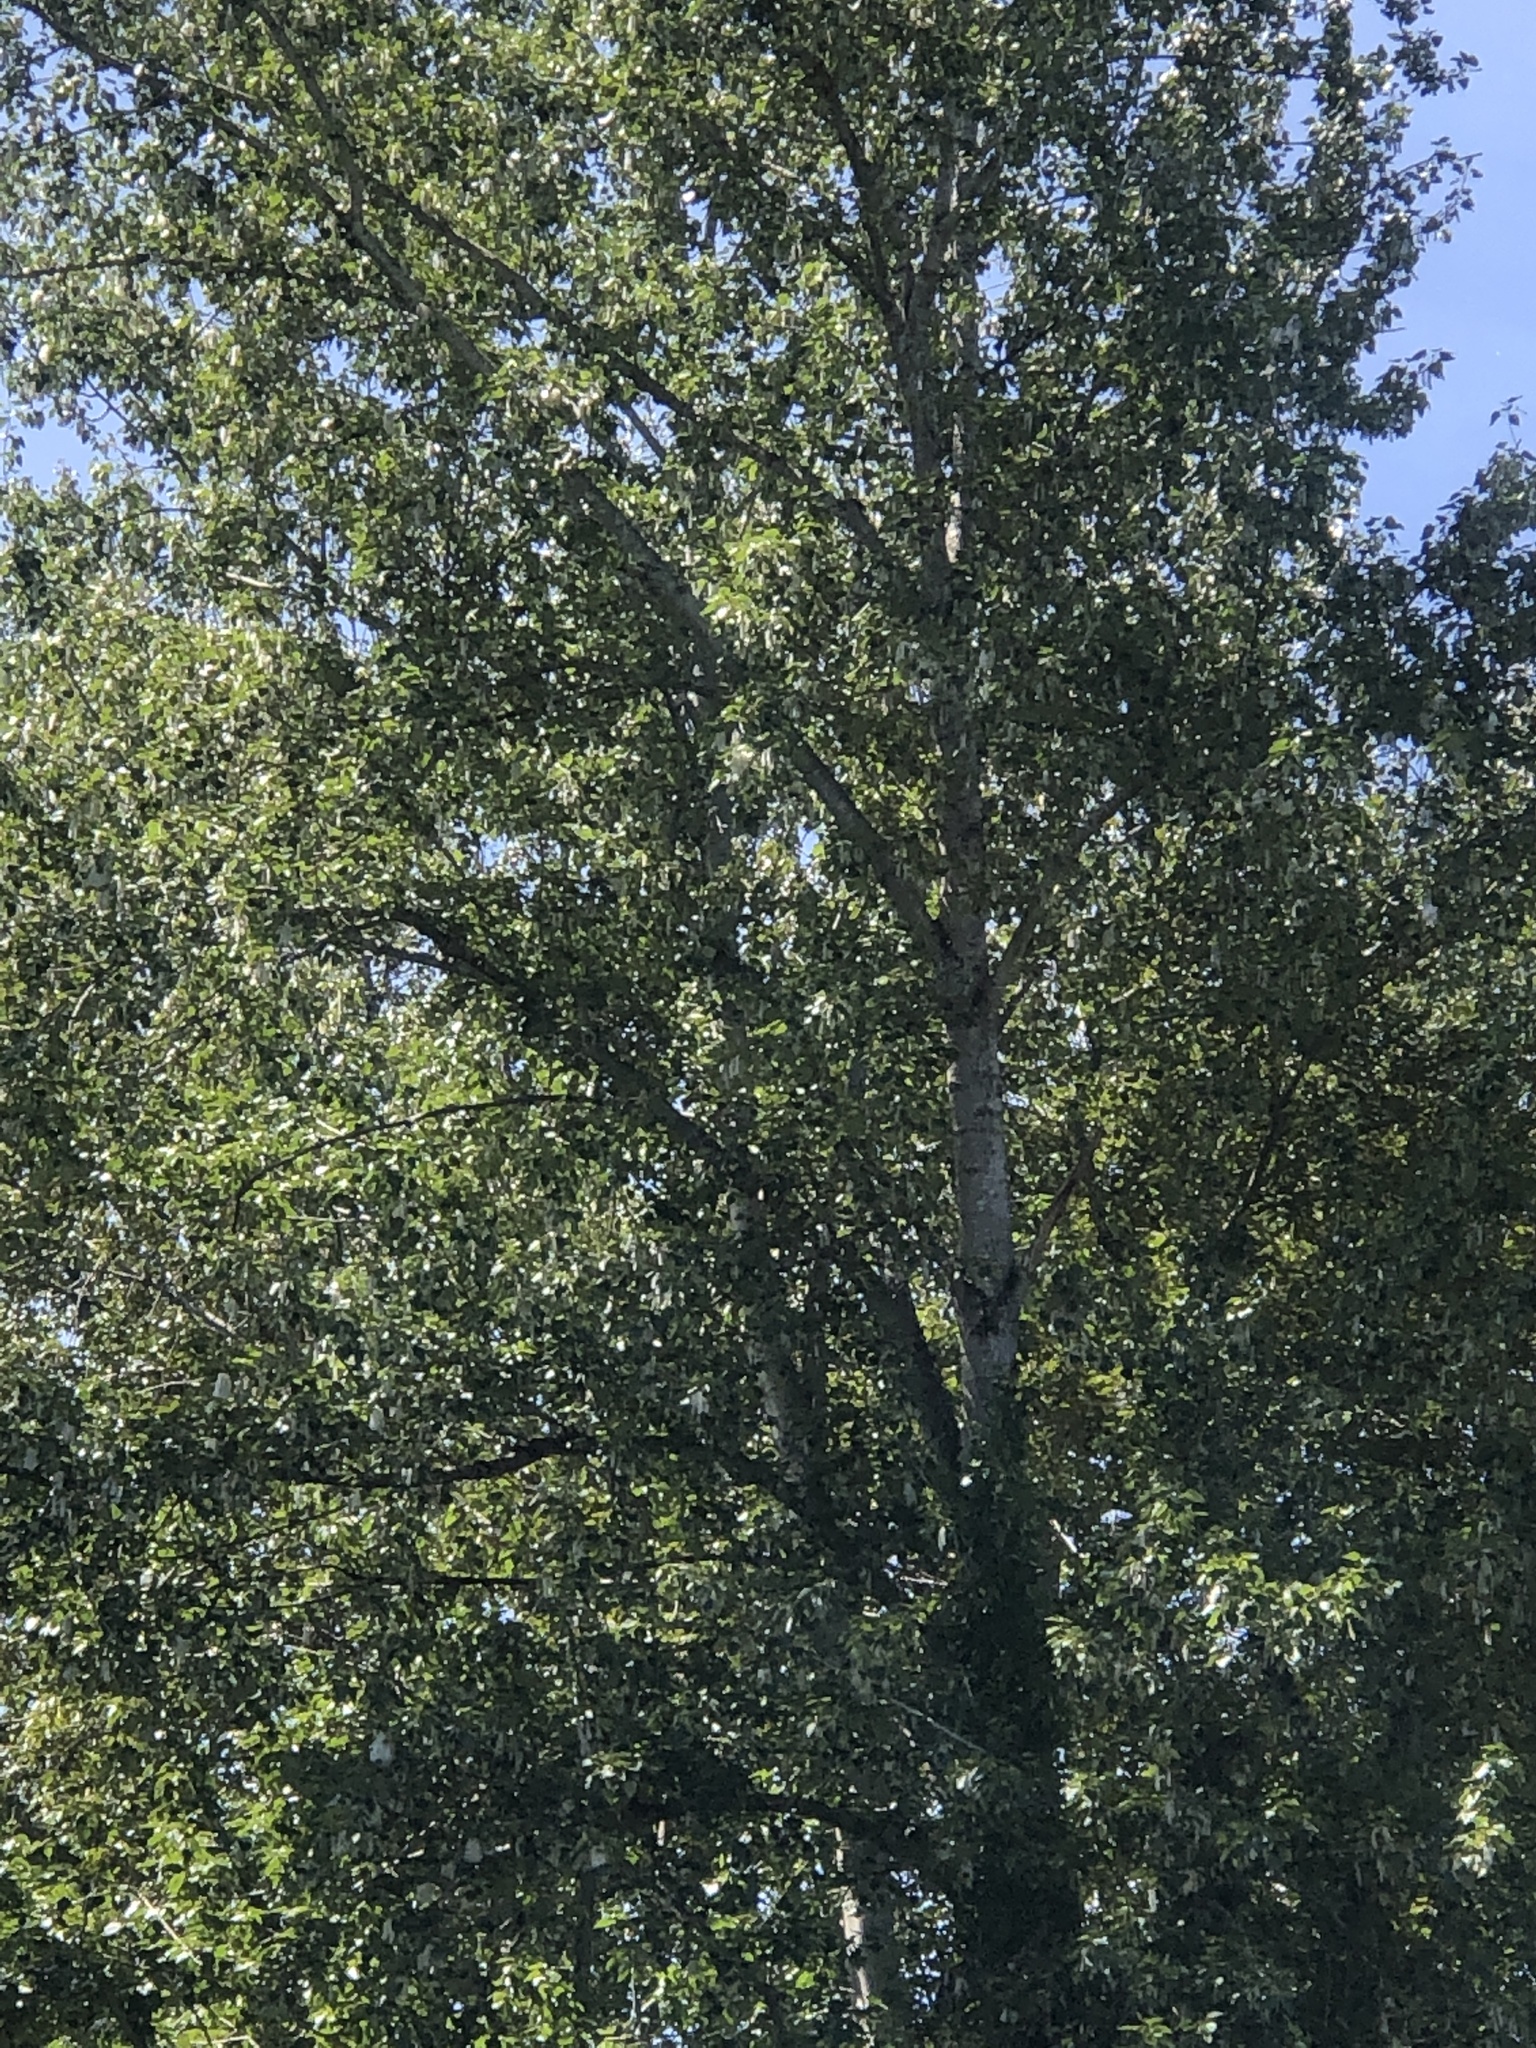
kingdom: Plantae
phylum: Tracheophyta
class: Magnoliopsida
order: Malpighiales
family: Salicaceae
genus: Populus
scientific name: Populus trichocarpa
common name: Black cottonwood
